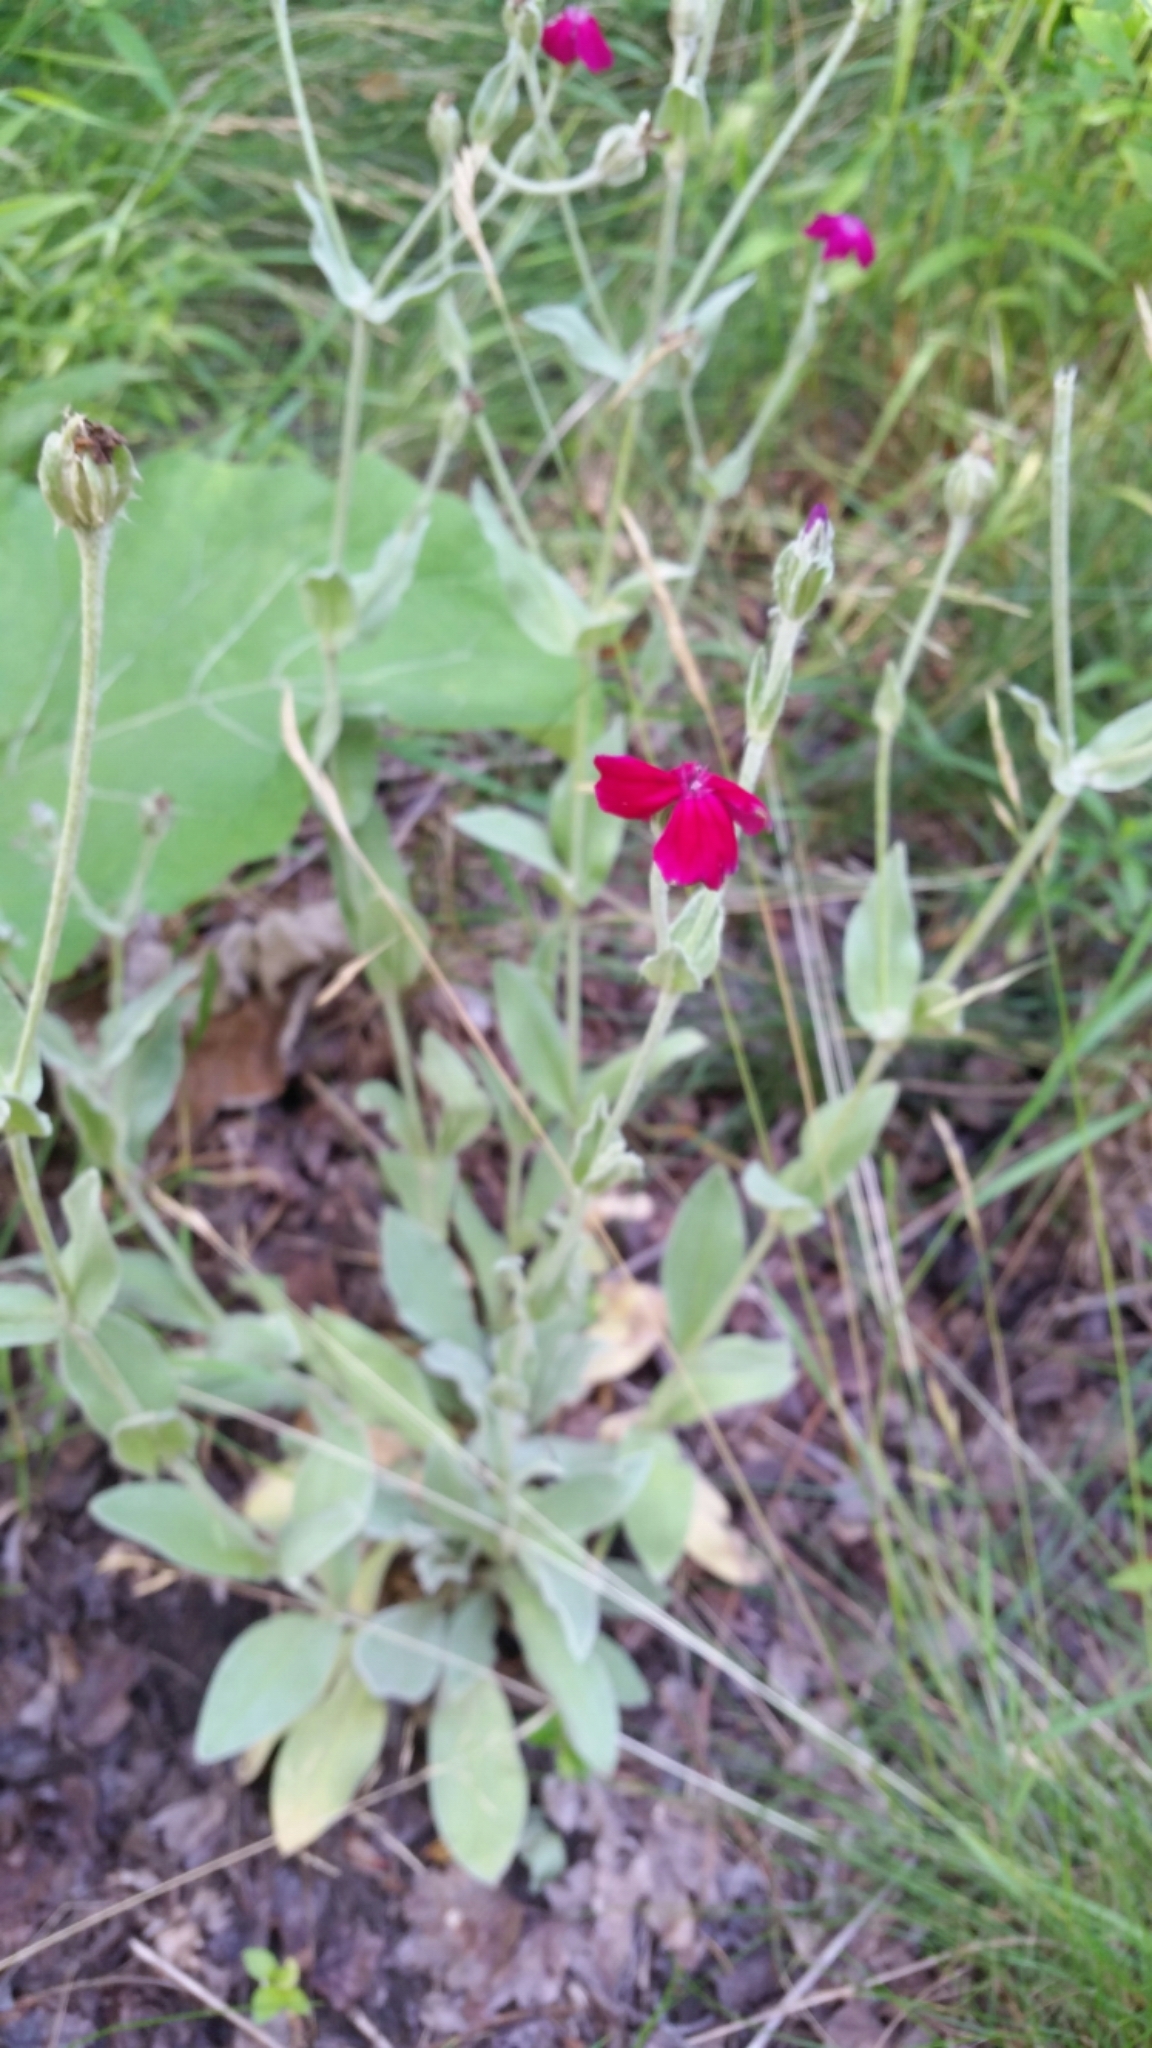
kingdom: Plantae
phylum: Tracheophyta
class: Magnoliopsida
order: Caryophyllales
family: Caryophyllaceae
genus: Silene
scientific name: Silene coronaria
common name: Rose campion
